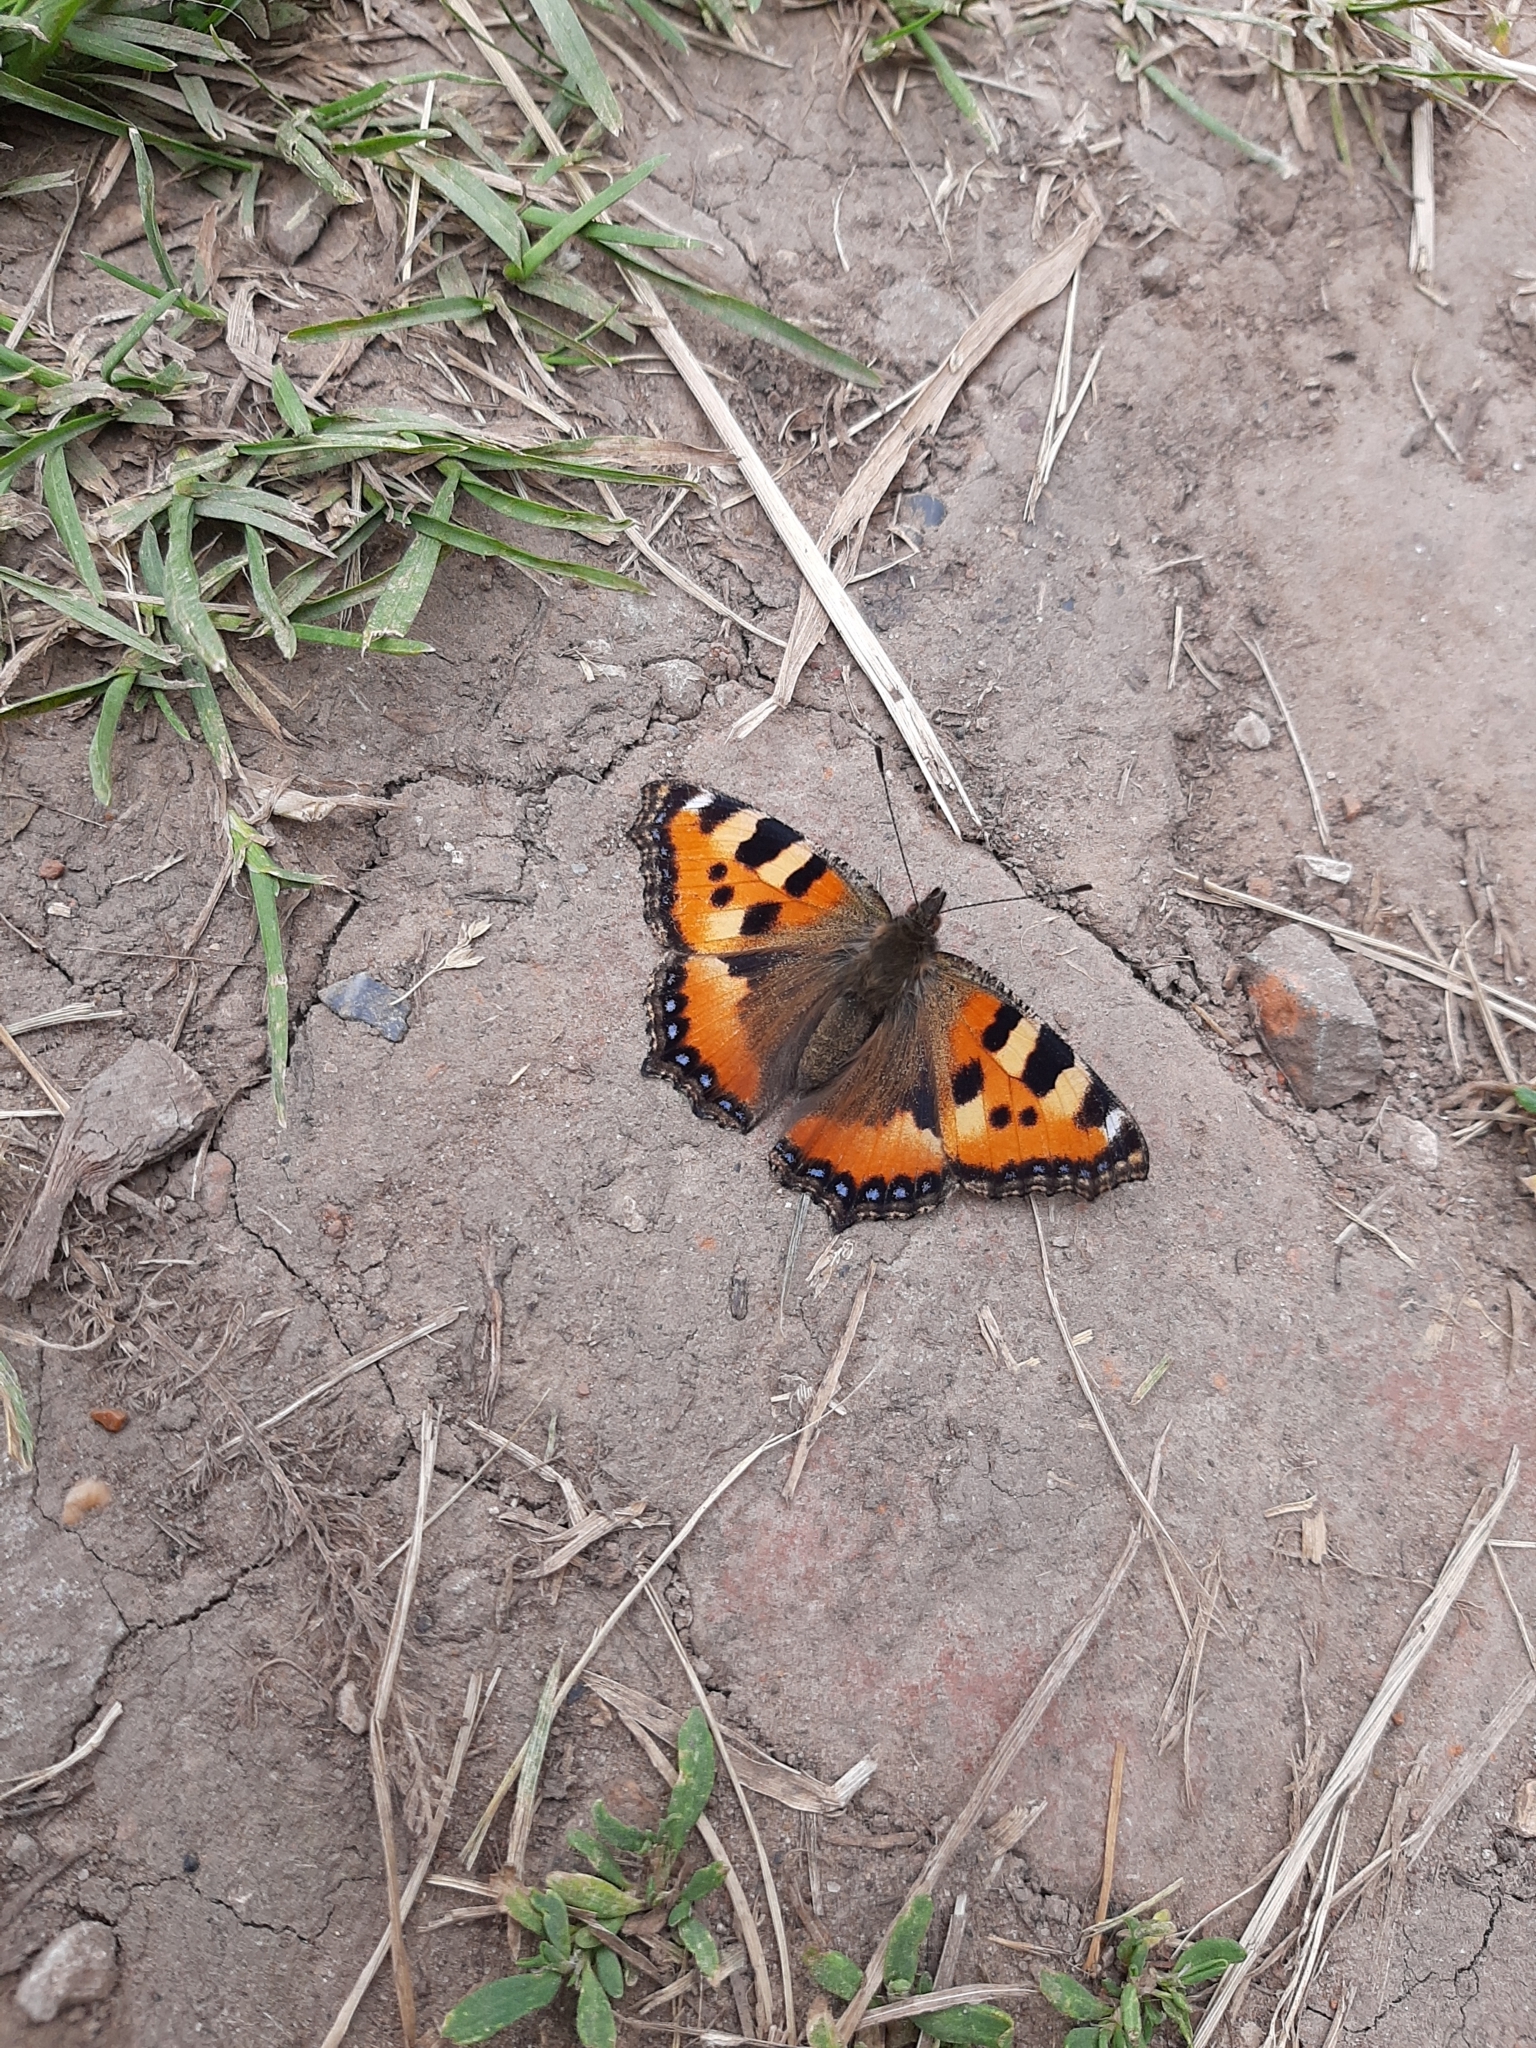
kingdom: Animalia
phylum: Arthropoda
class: Insecta
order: Lepidoptera
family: Nymphalidae
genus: Aglais
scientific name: Aglais urticae
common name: Small tortoiseshell
